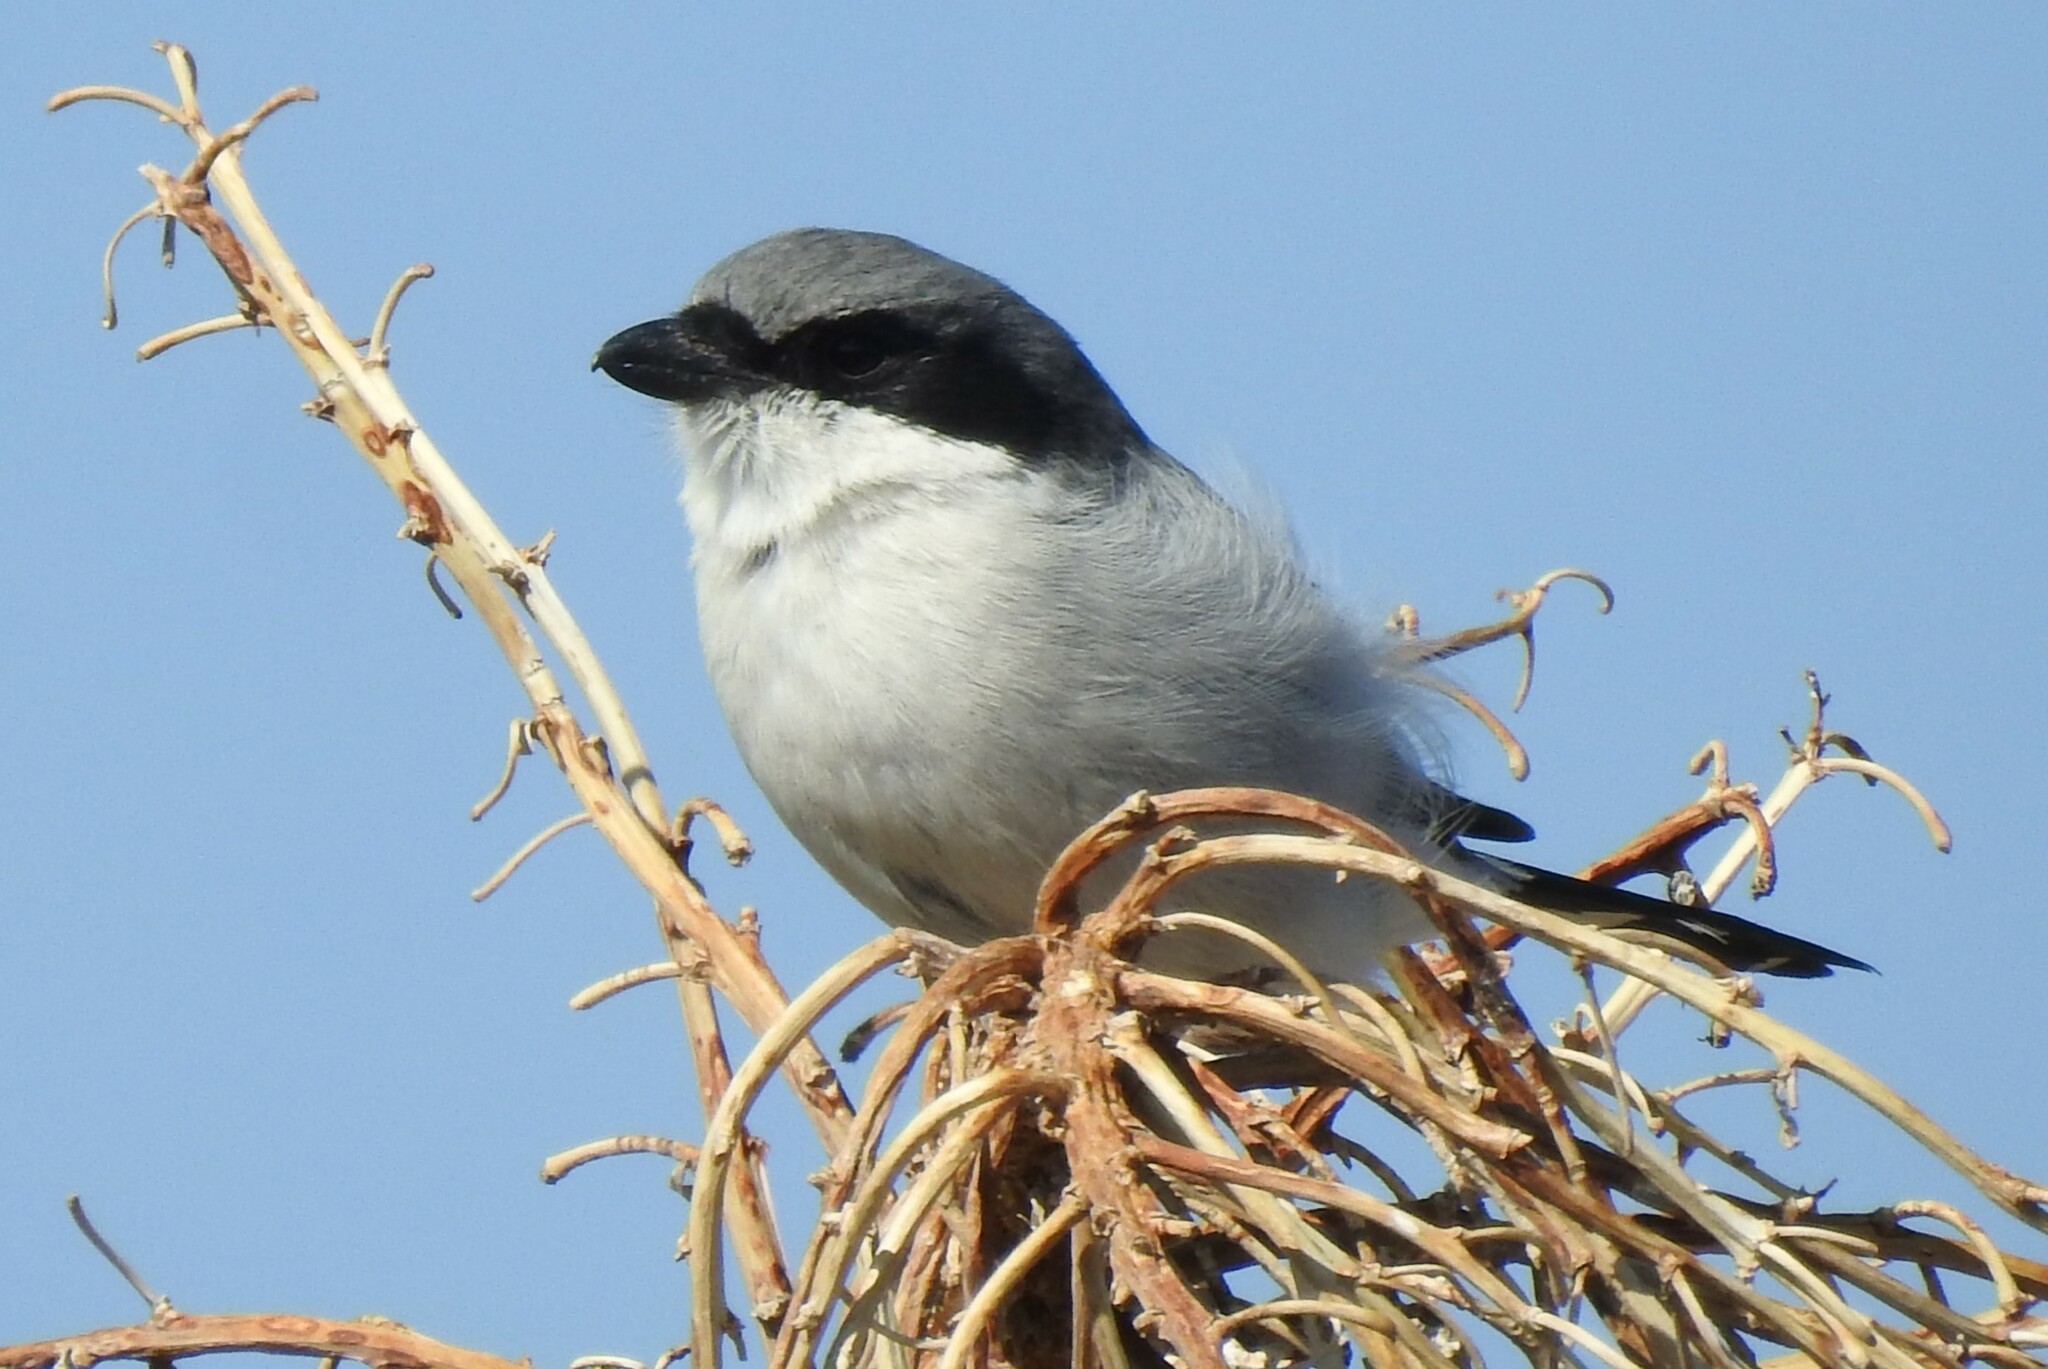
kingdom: Animalia
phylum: Chordata
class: Aves
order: Passeriformes
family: Laniidae
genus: Lanius
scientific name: Lanius ludovicianus
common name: Loggerhead shrike
